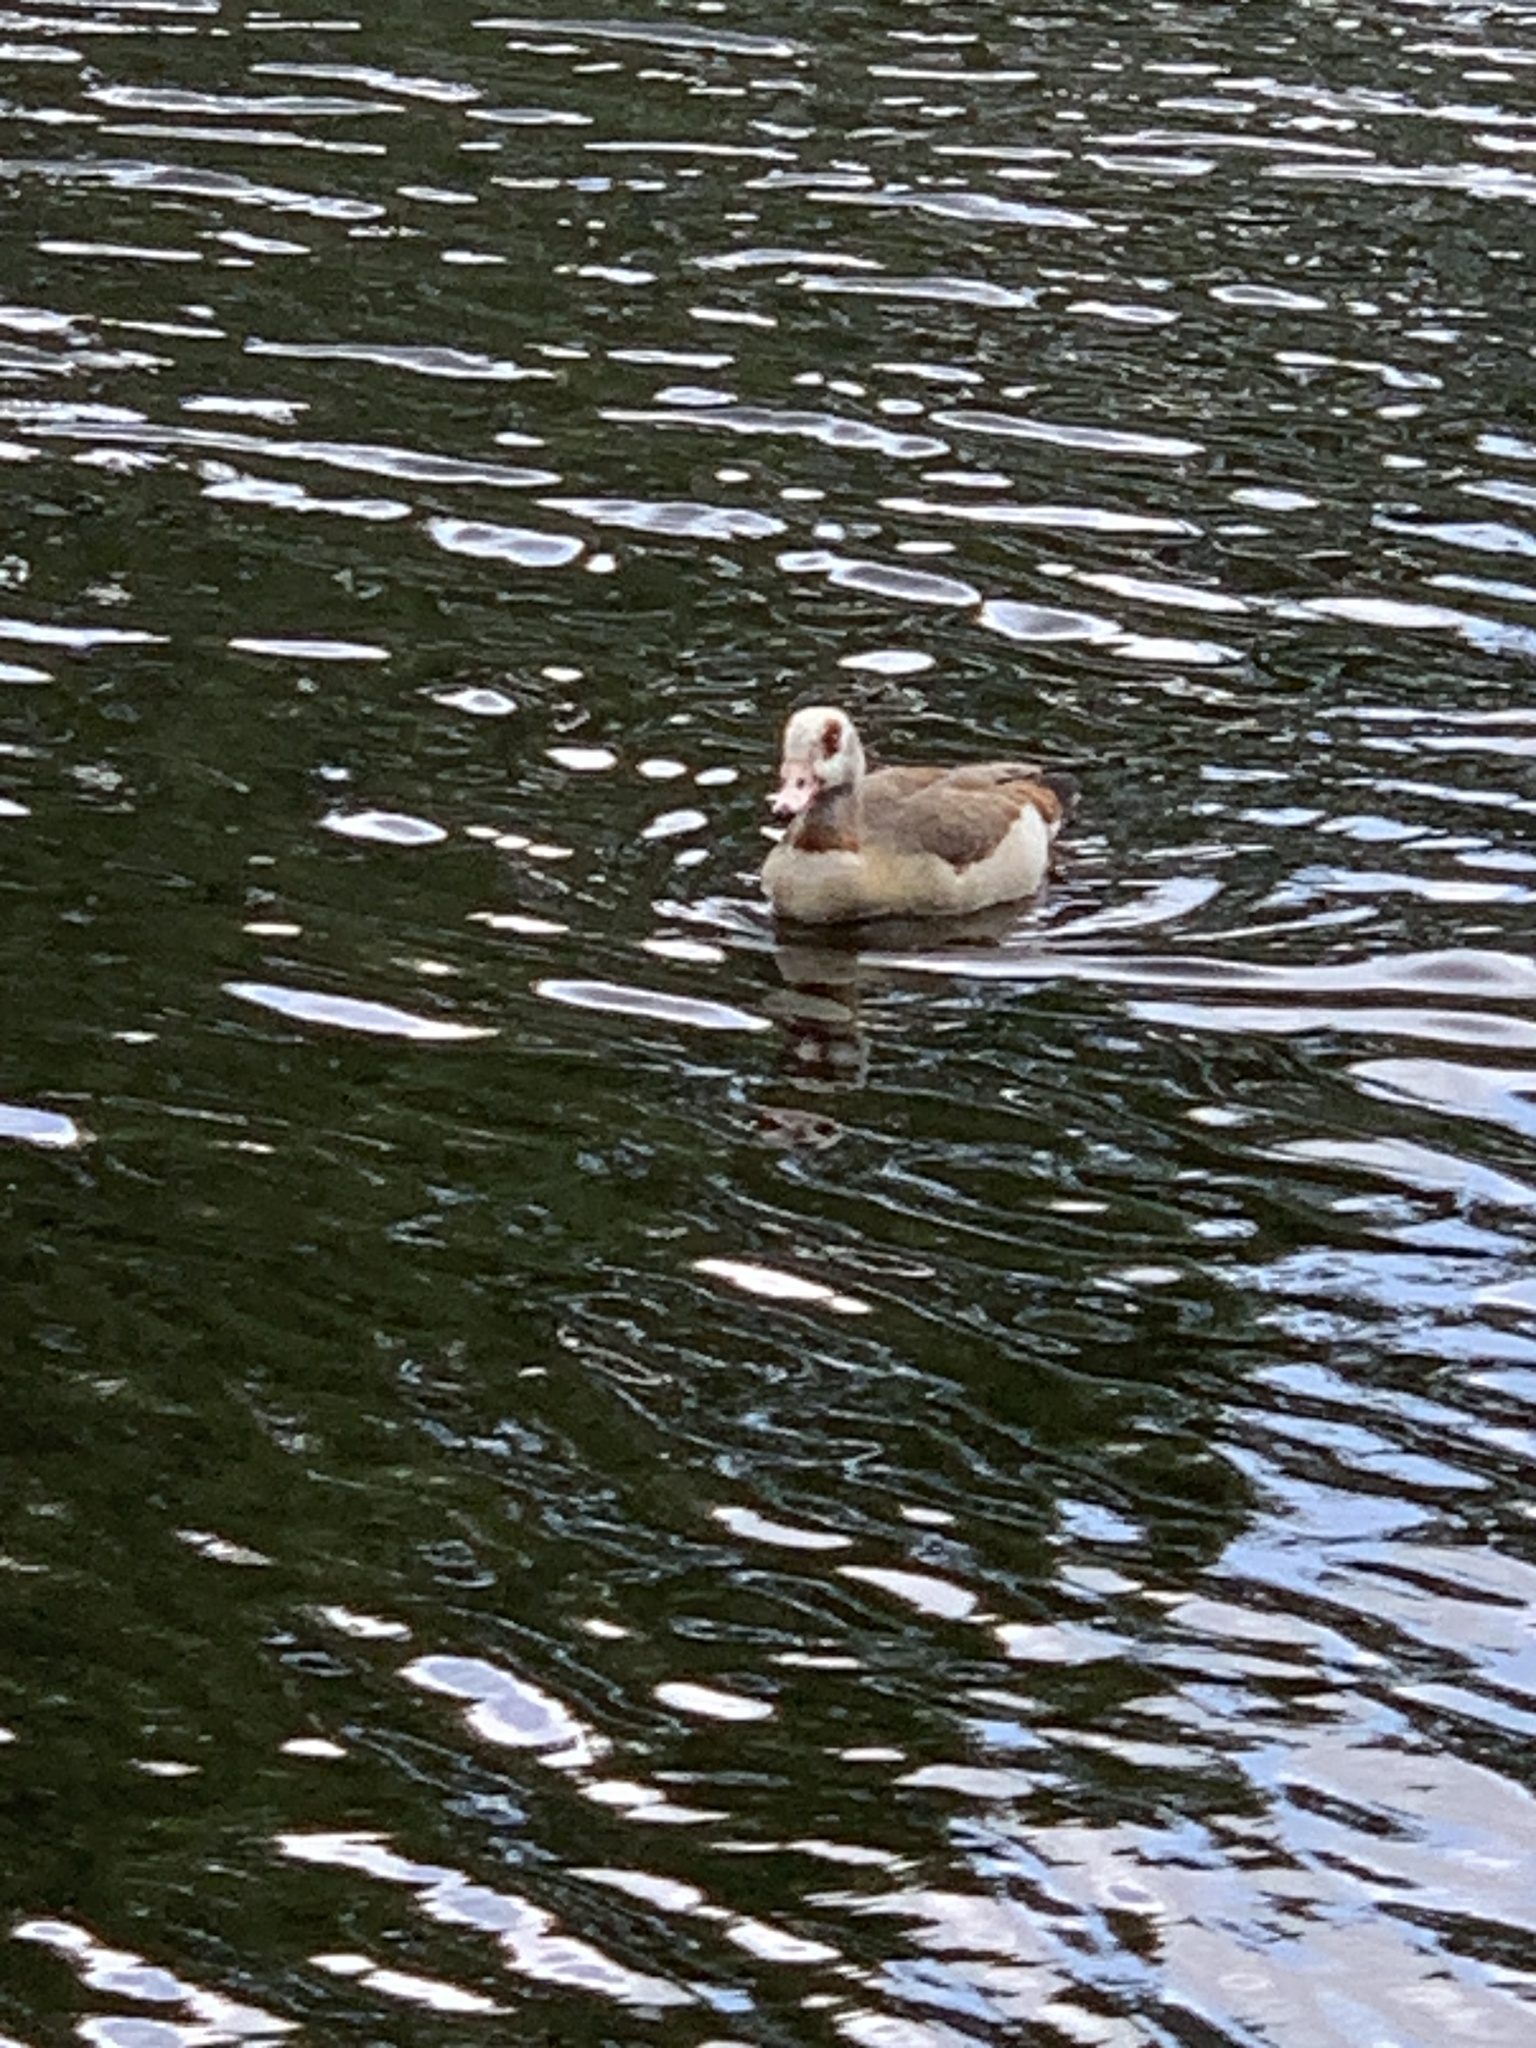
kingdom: Animalia
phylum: Chordata
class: Aves
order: Anseriformes
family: Anatidae
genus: Alopochen
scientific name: Alopochen aegyptiaca
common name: Egyptian goose
